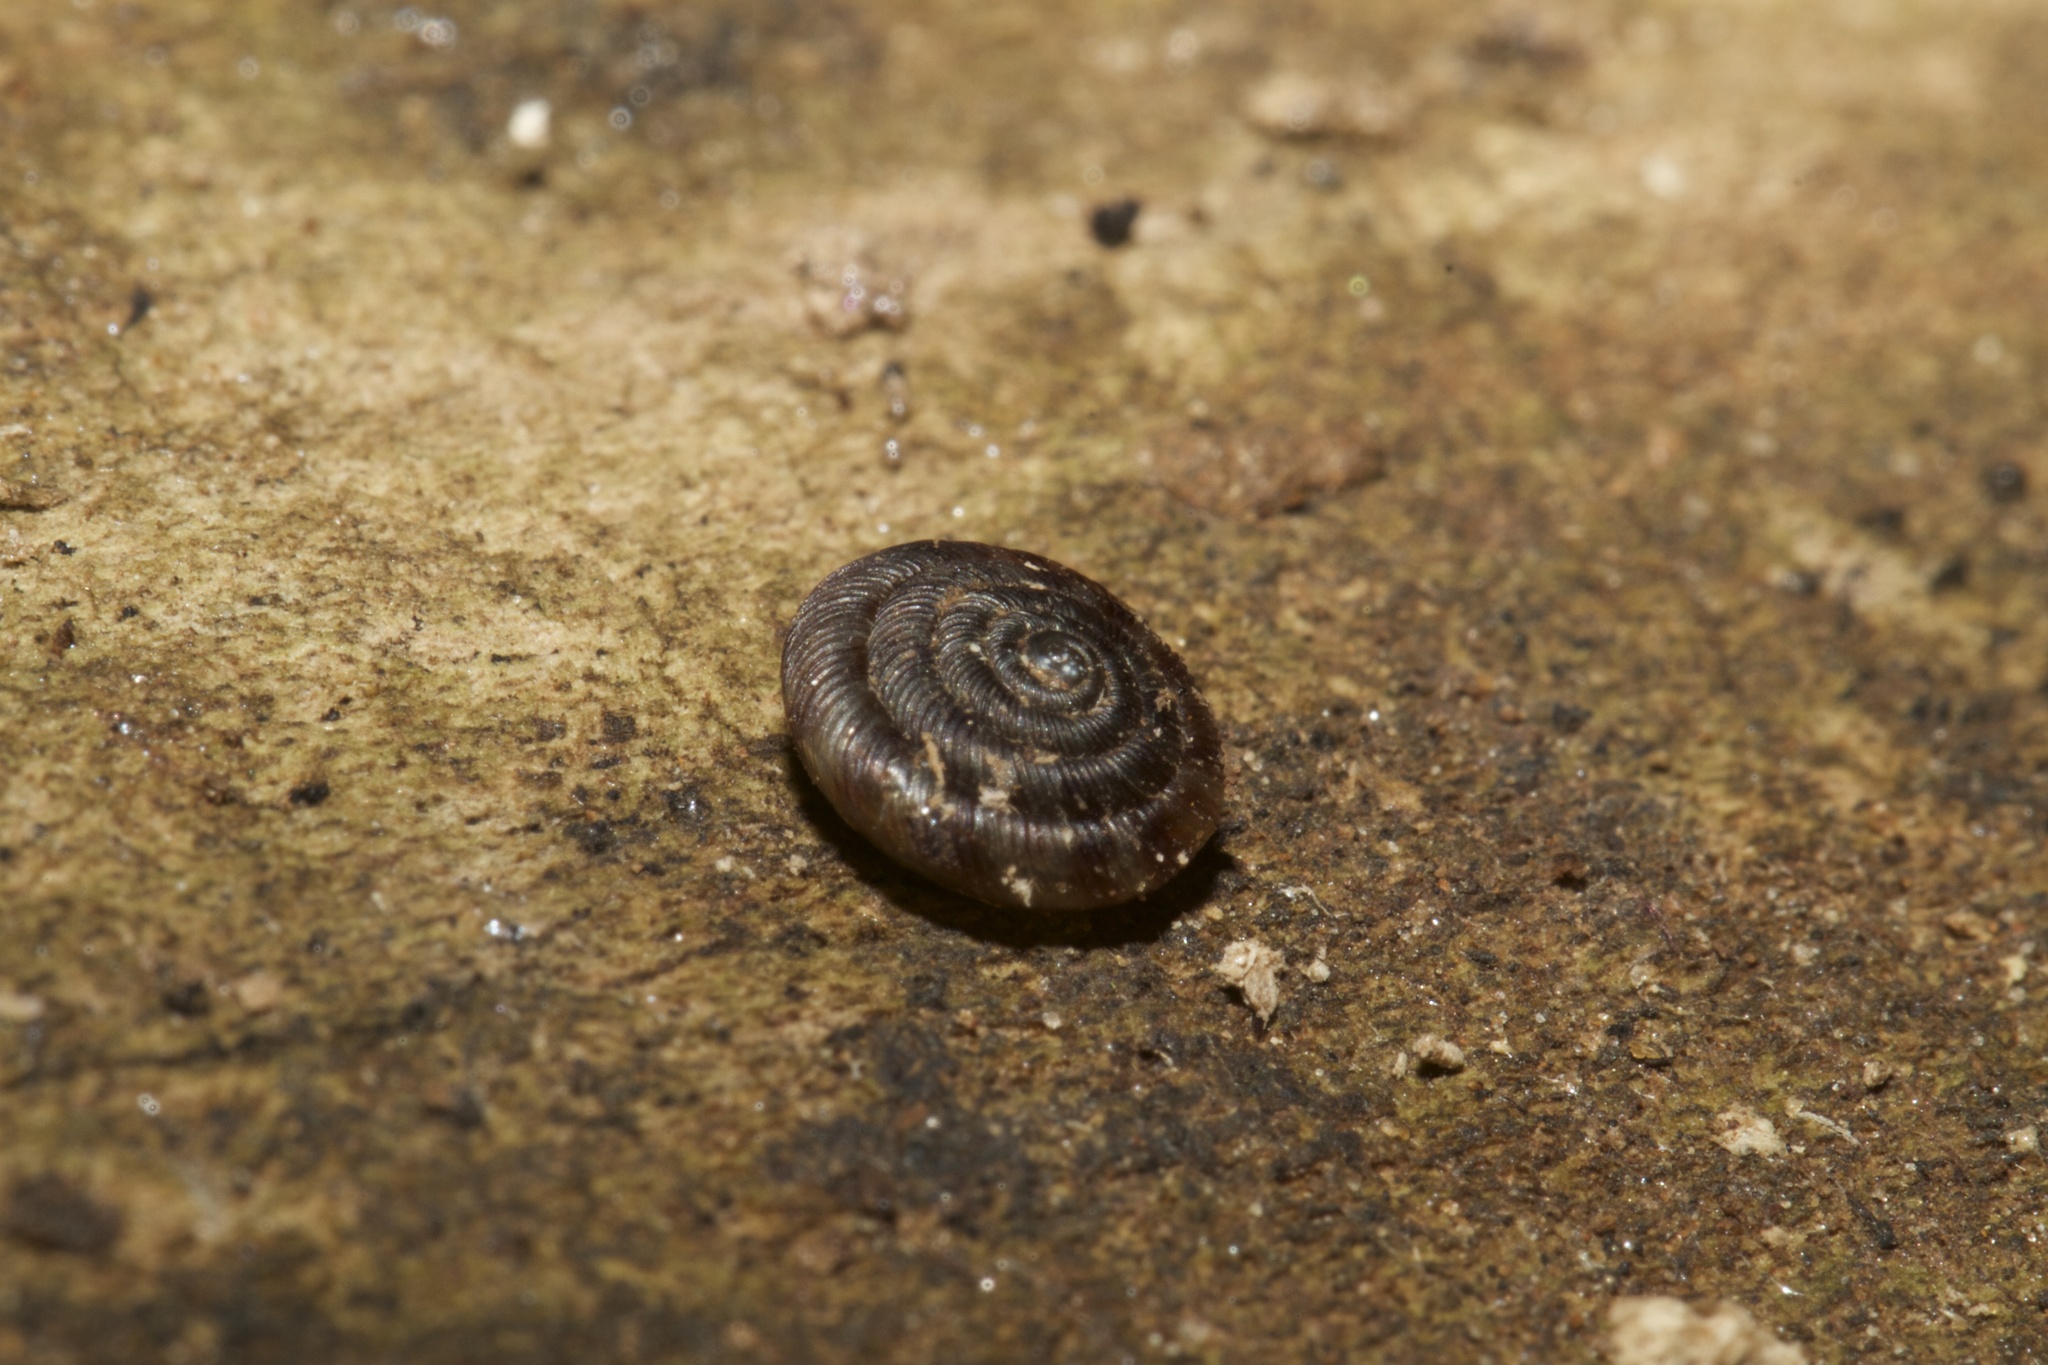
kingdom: Animalia
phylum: Mollusca
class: Gastropoda
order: Stylommatophora
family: Discidae
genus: Discus
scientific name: Discus rotundatus
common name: Rounded snail
